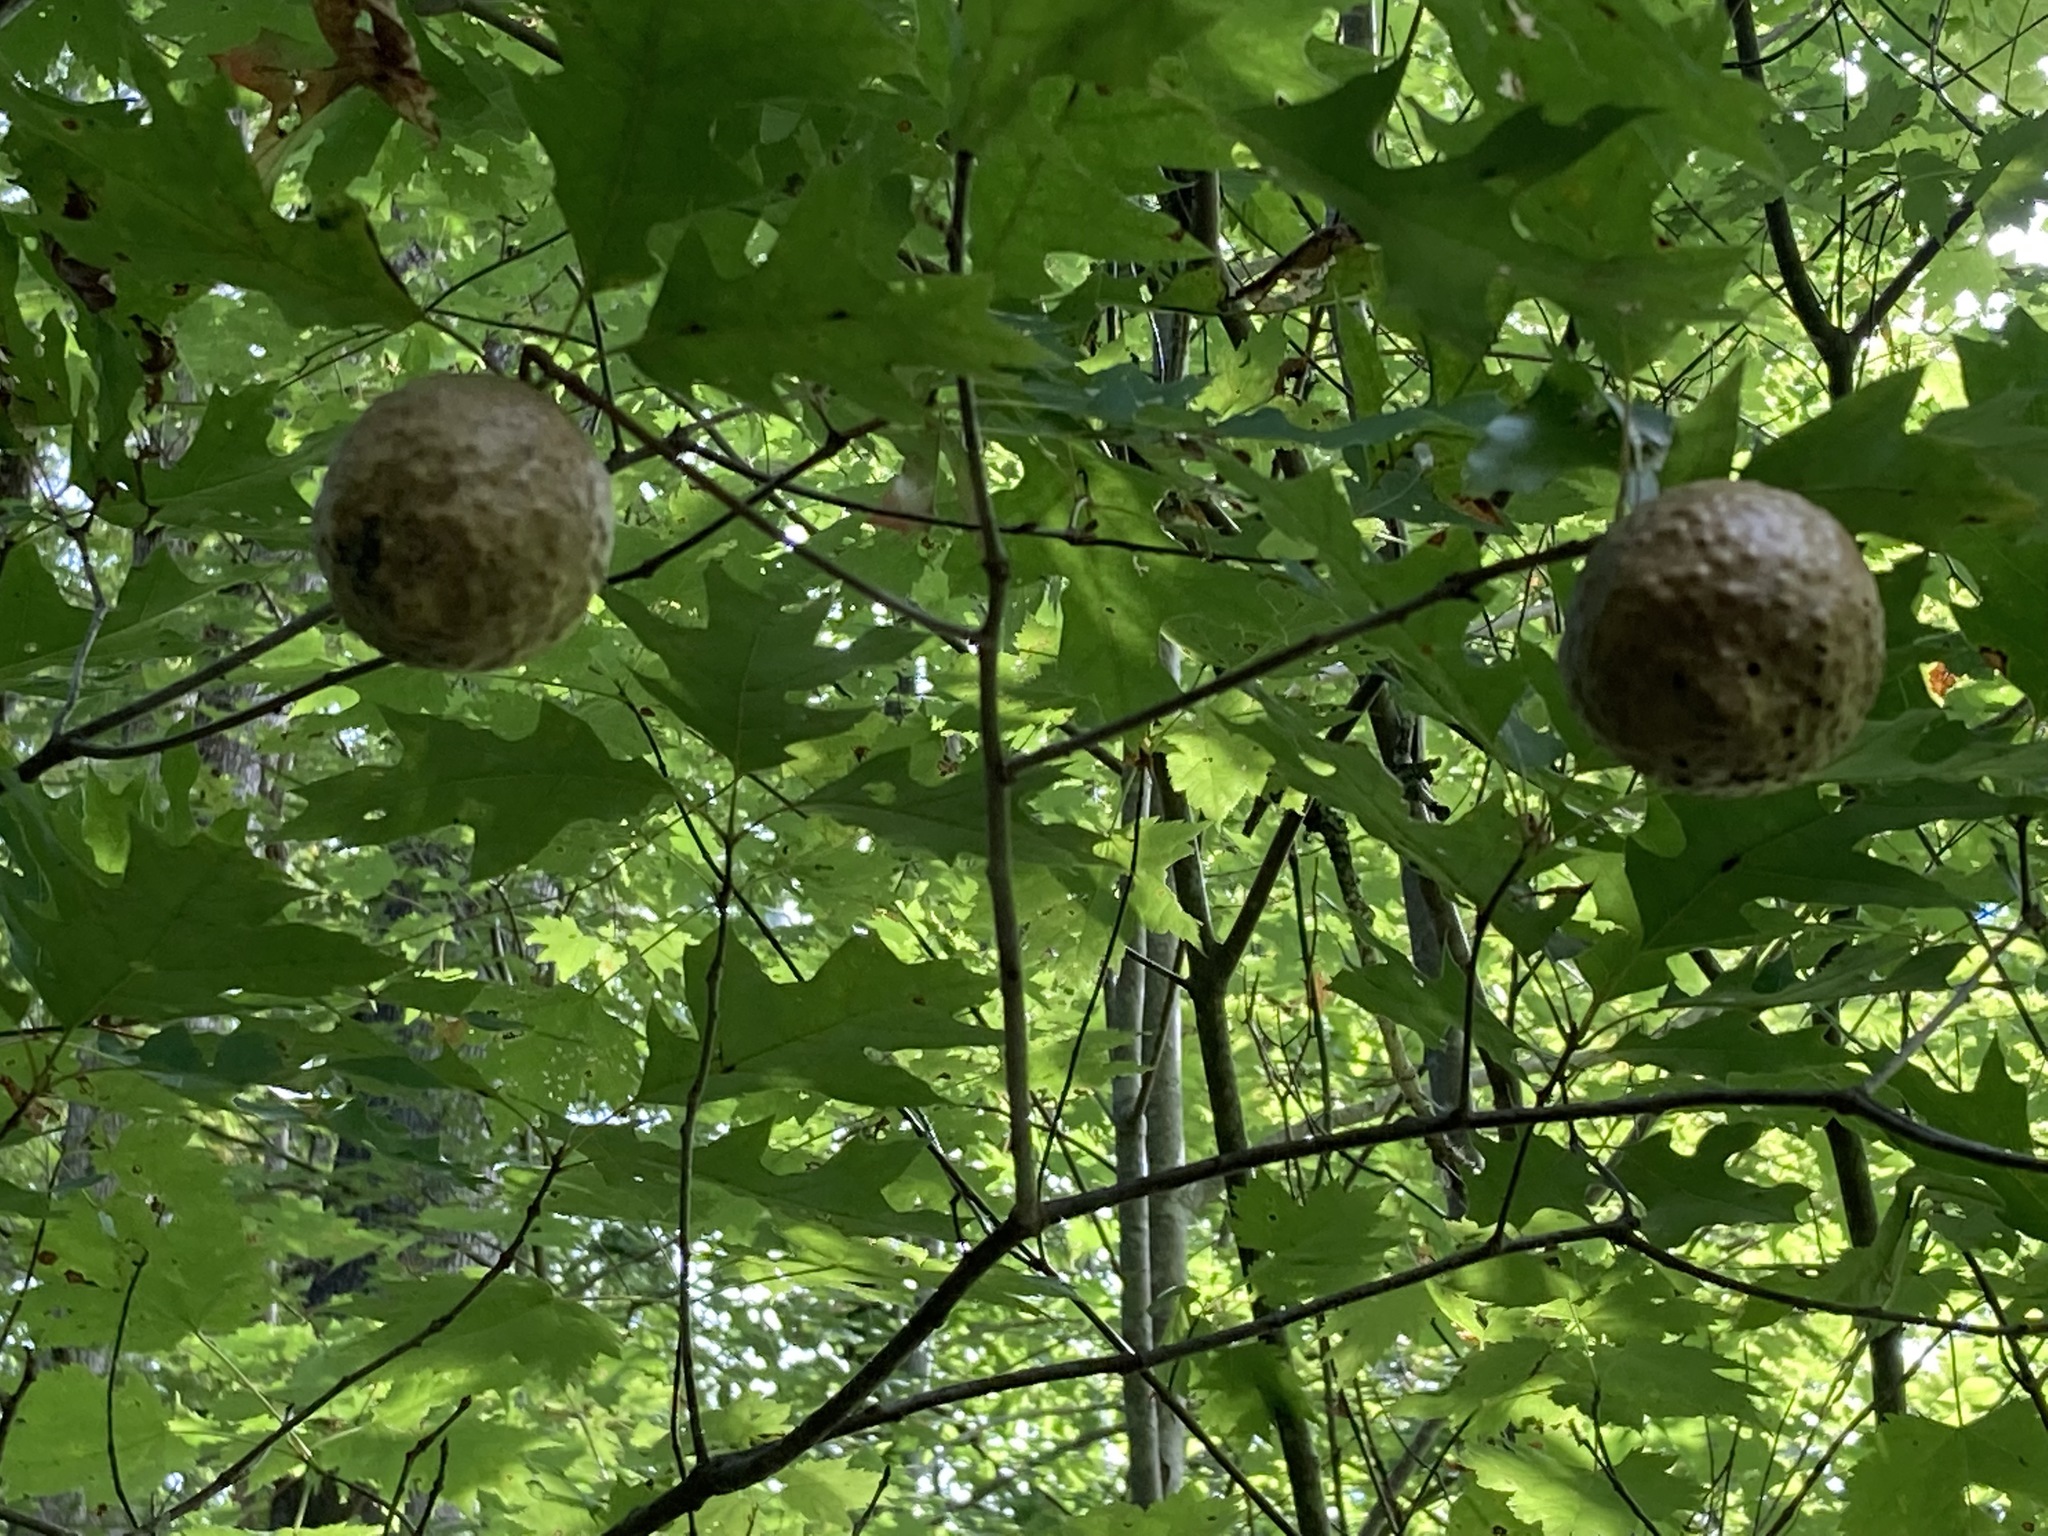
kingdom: Animalia
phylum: Arthropoda
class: Insecta
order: Hymenoptera
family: Cynipidae
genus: Amphibolips
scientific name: Amphibolips
